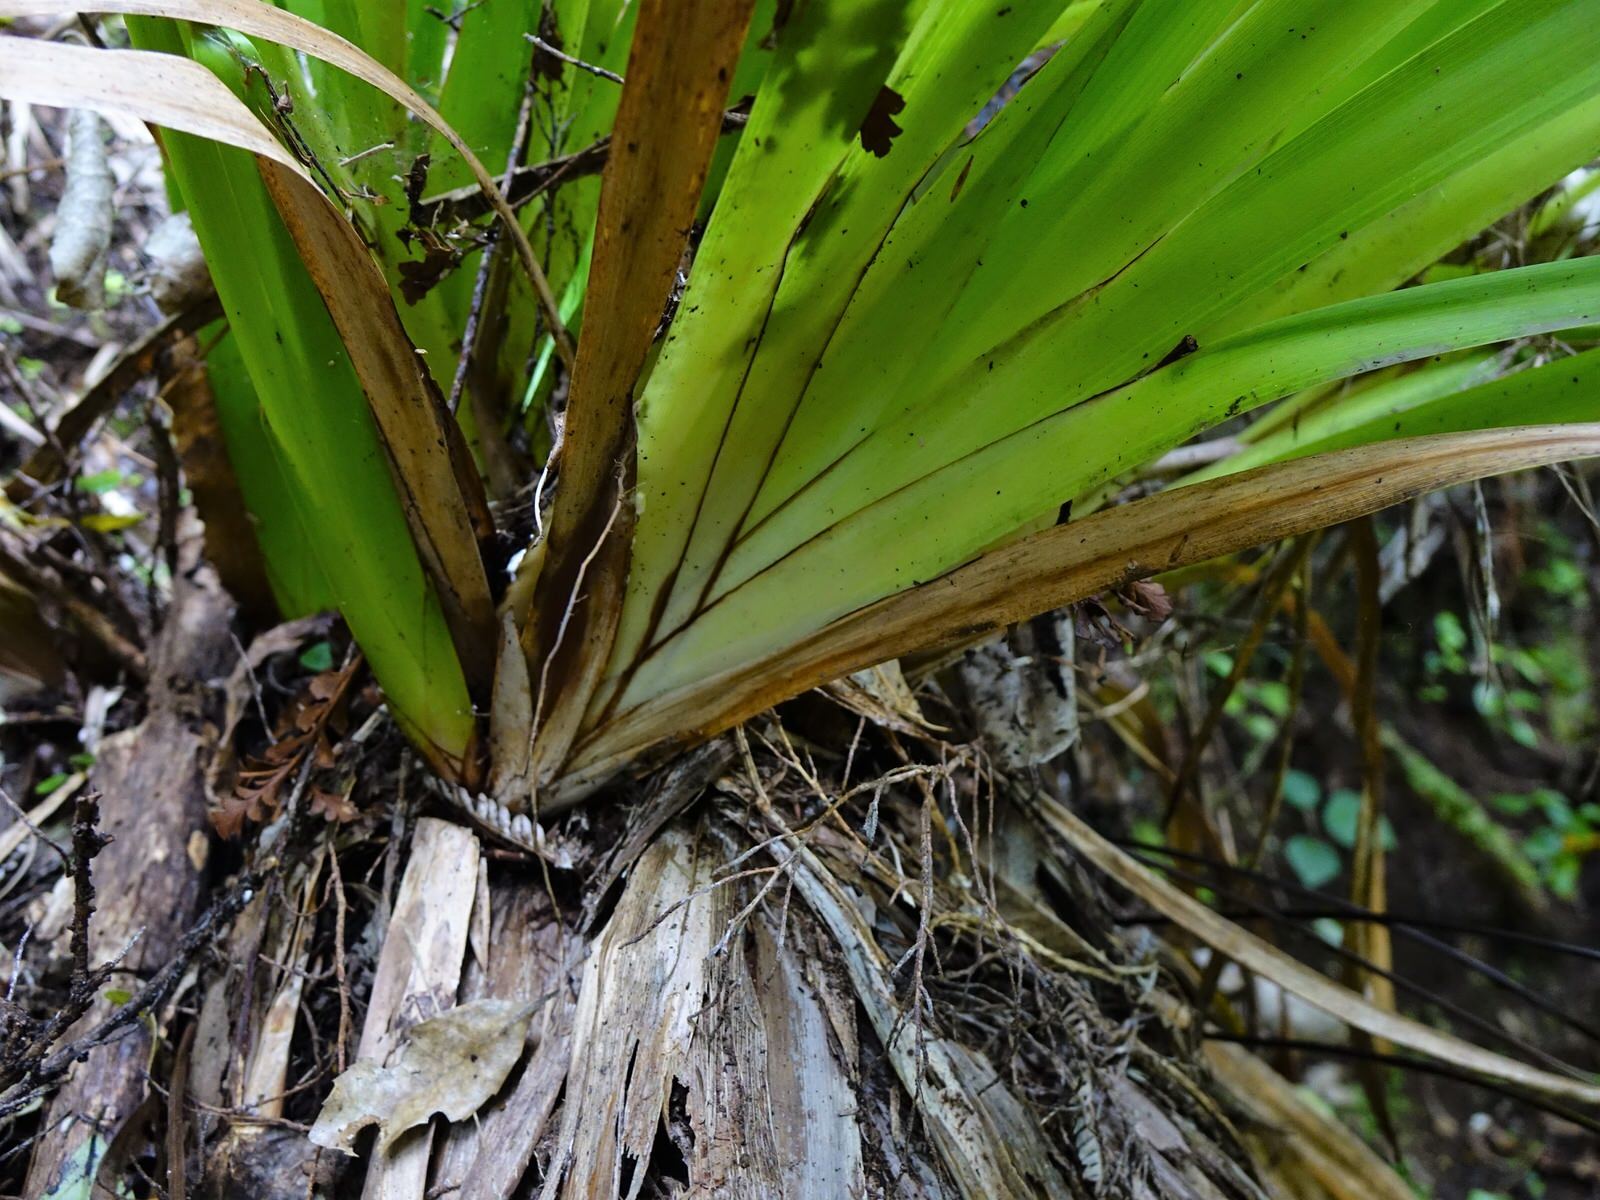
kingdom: Plantae
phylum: Tracheophyta
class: Liliopsida
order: Poales
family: Cyperaceae
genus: Machaerina
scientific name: Machaerina sinclairii
